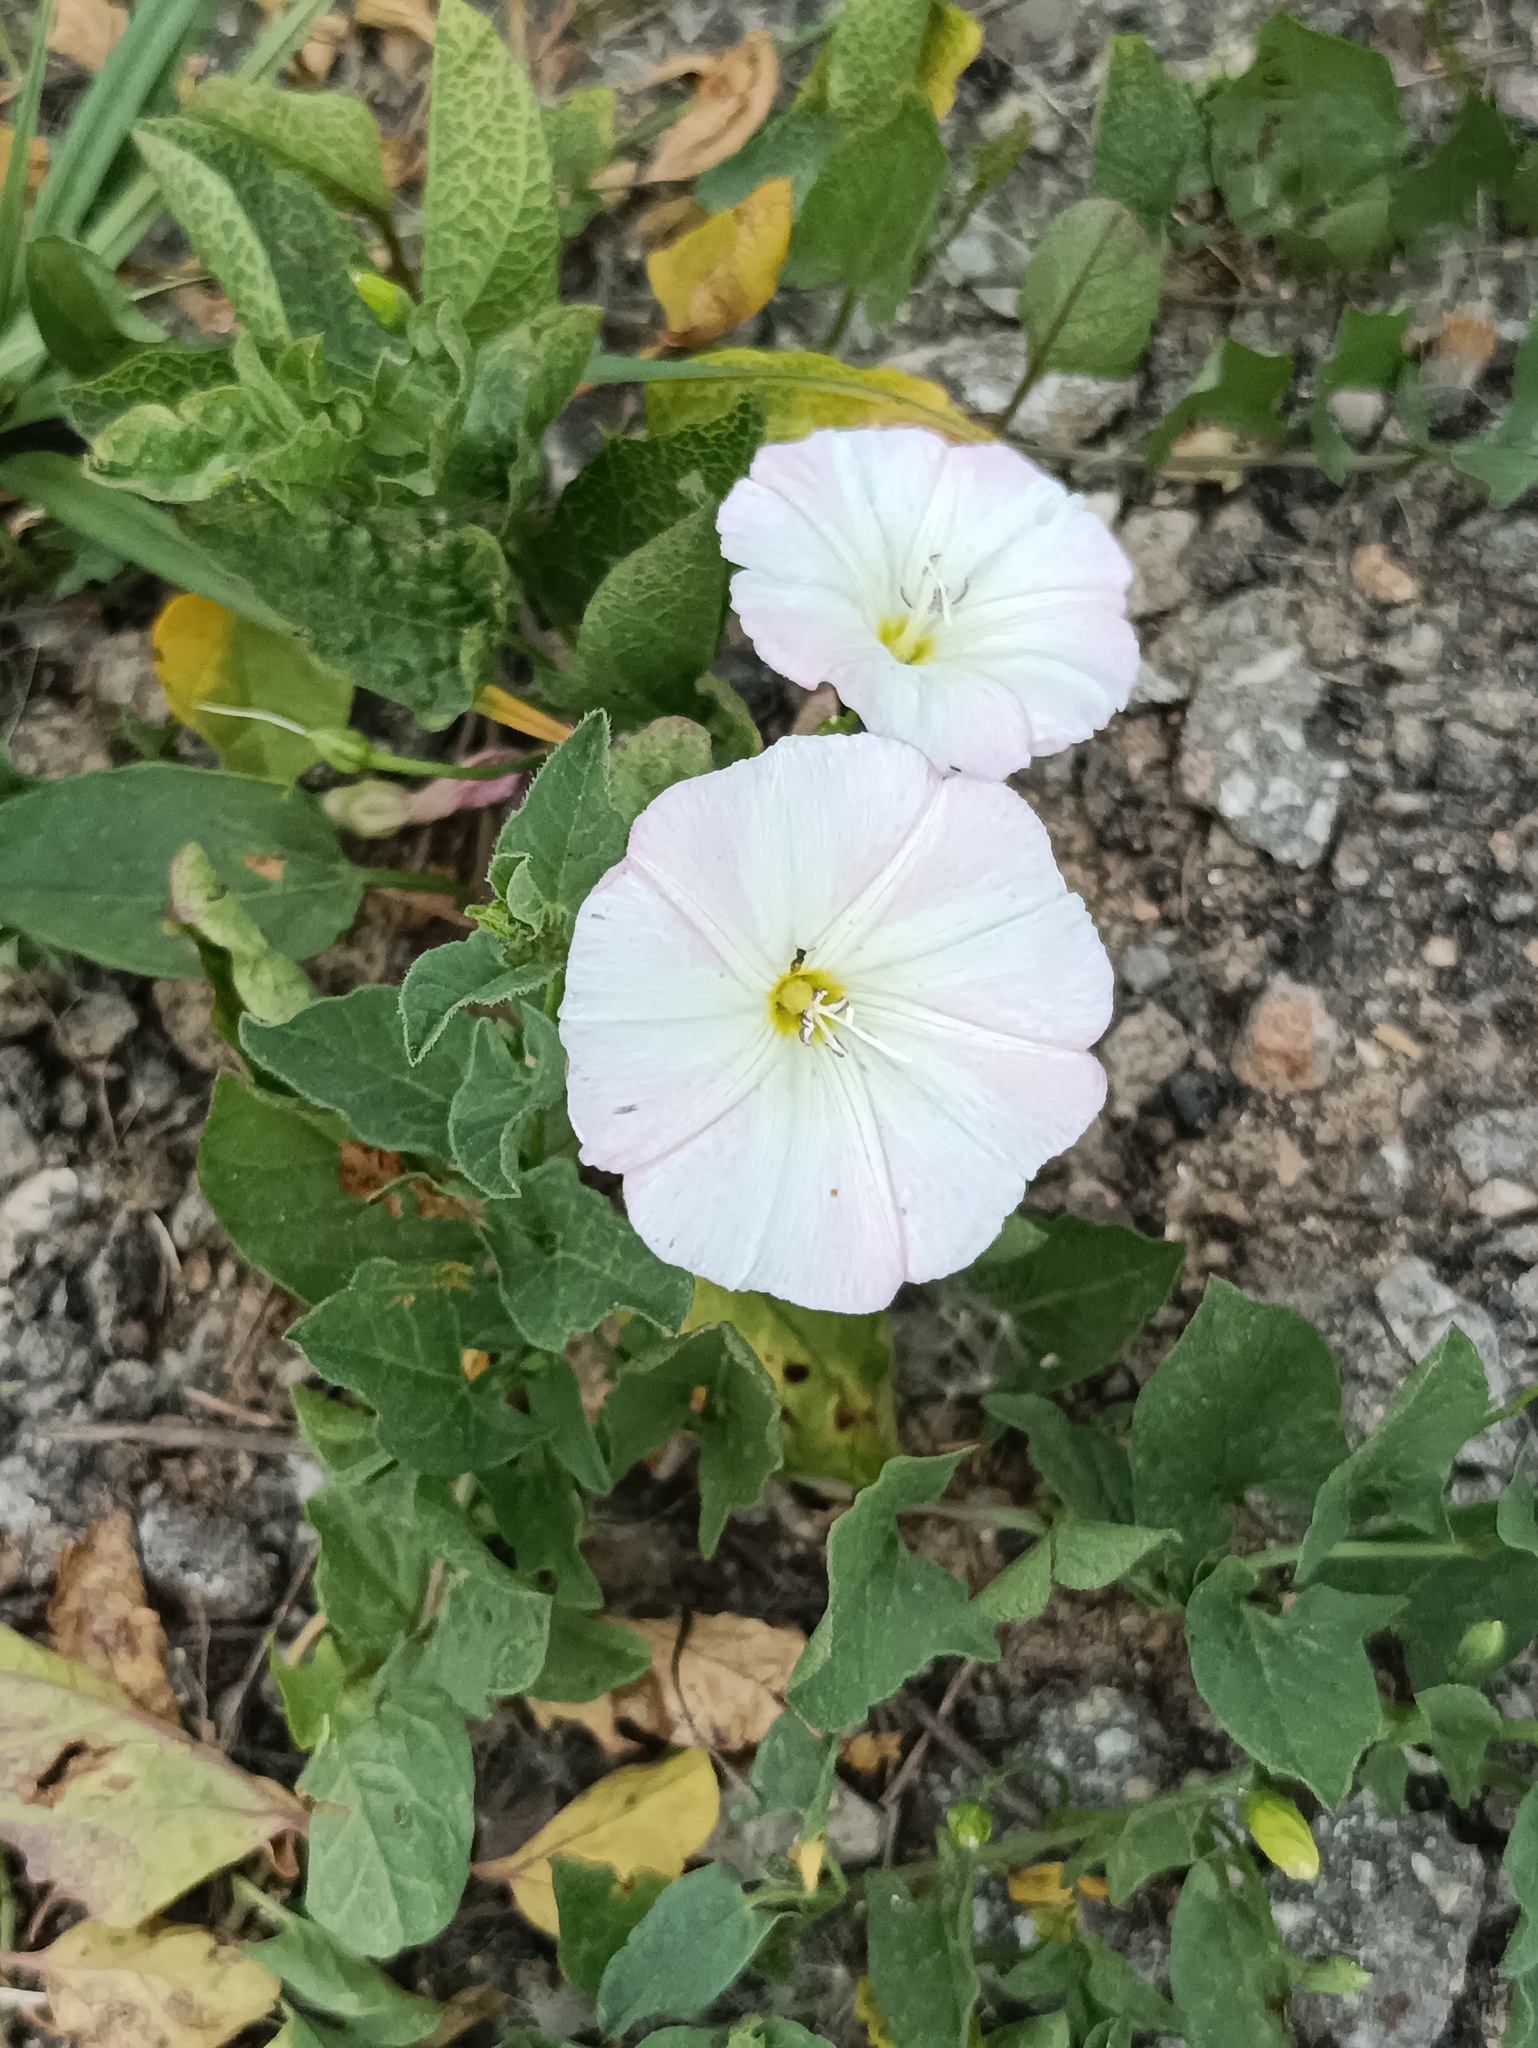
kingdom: Plantae
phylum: Tracheophyta
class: Magnoliopsida
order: Solanales
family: Convolvulaceae
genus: Convolvulus
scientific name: Convolvulus arvensis
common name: Field bindweed
